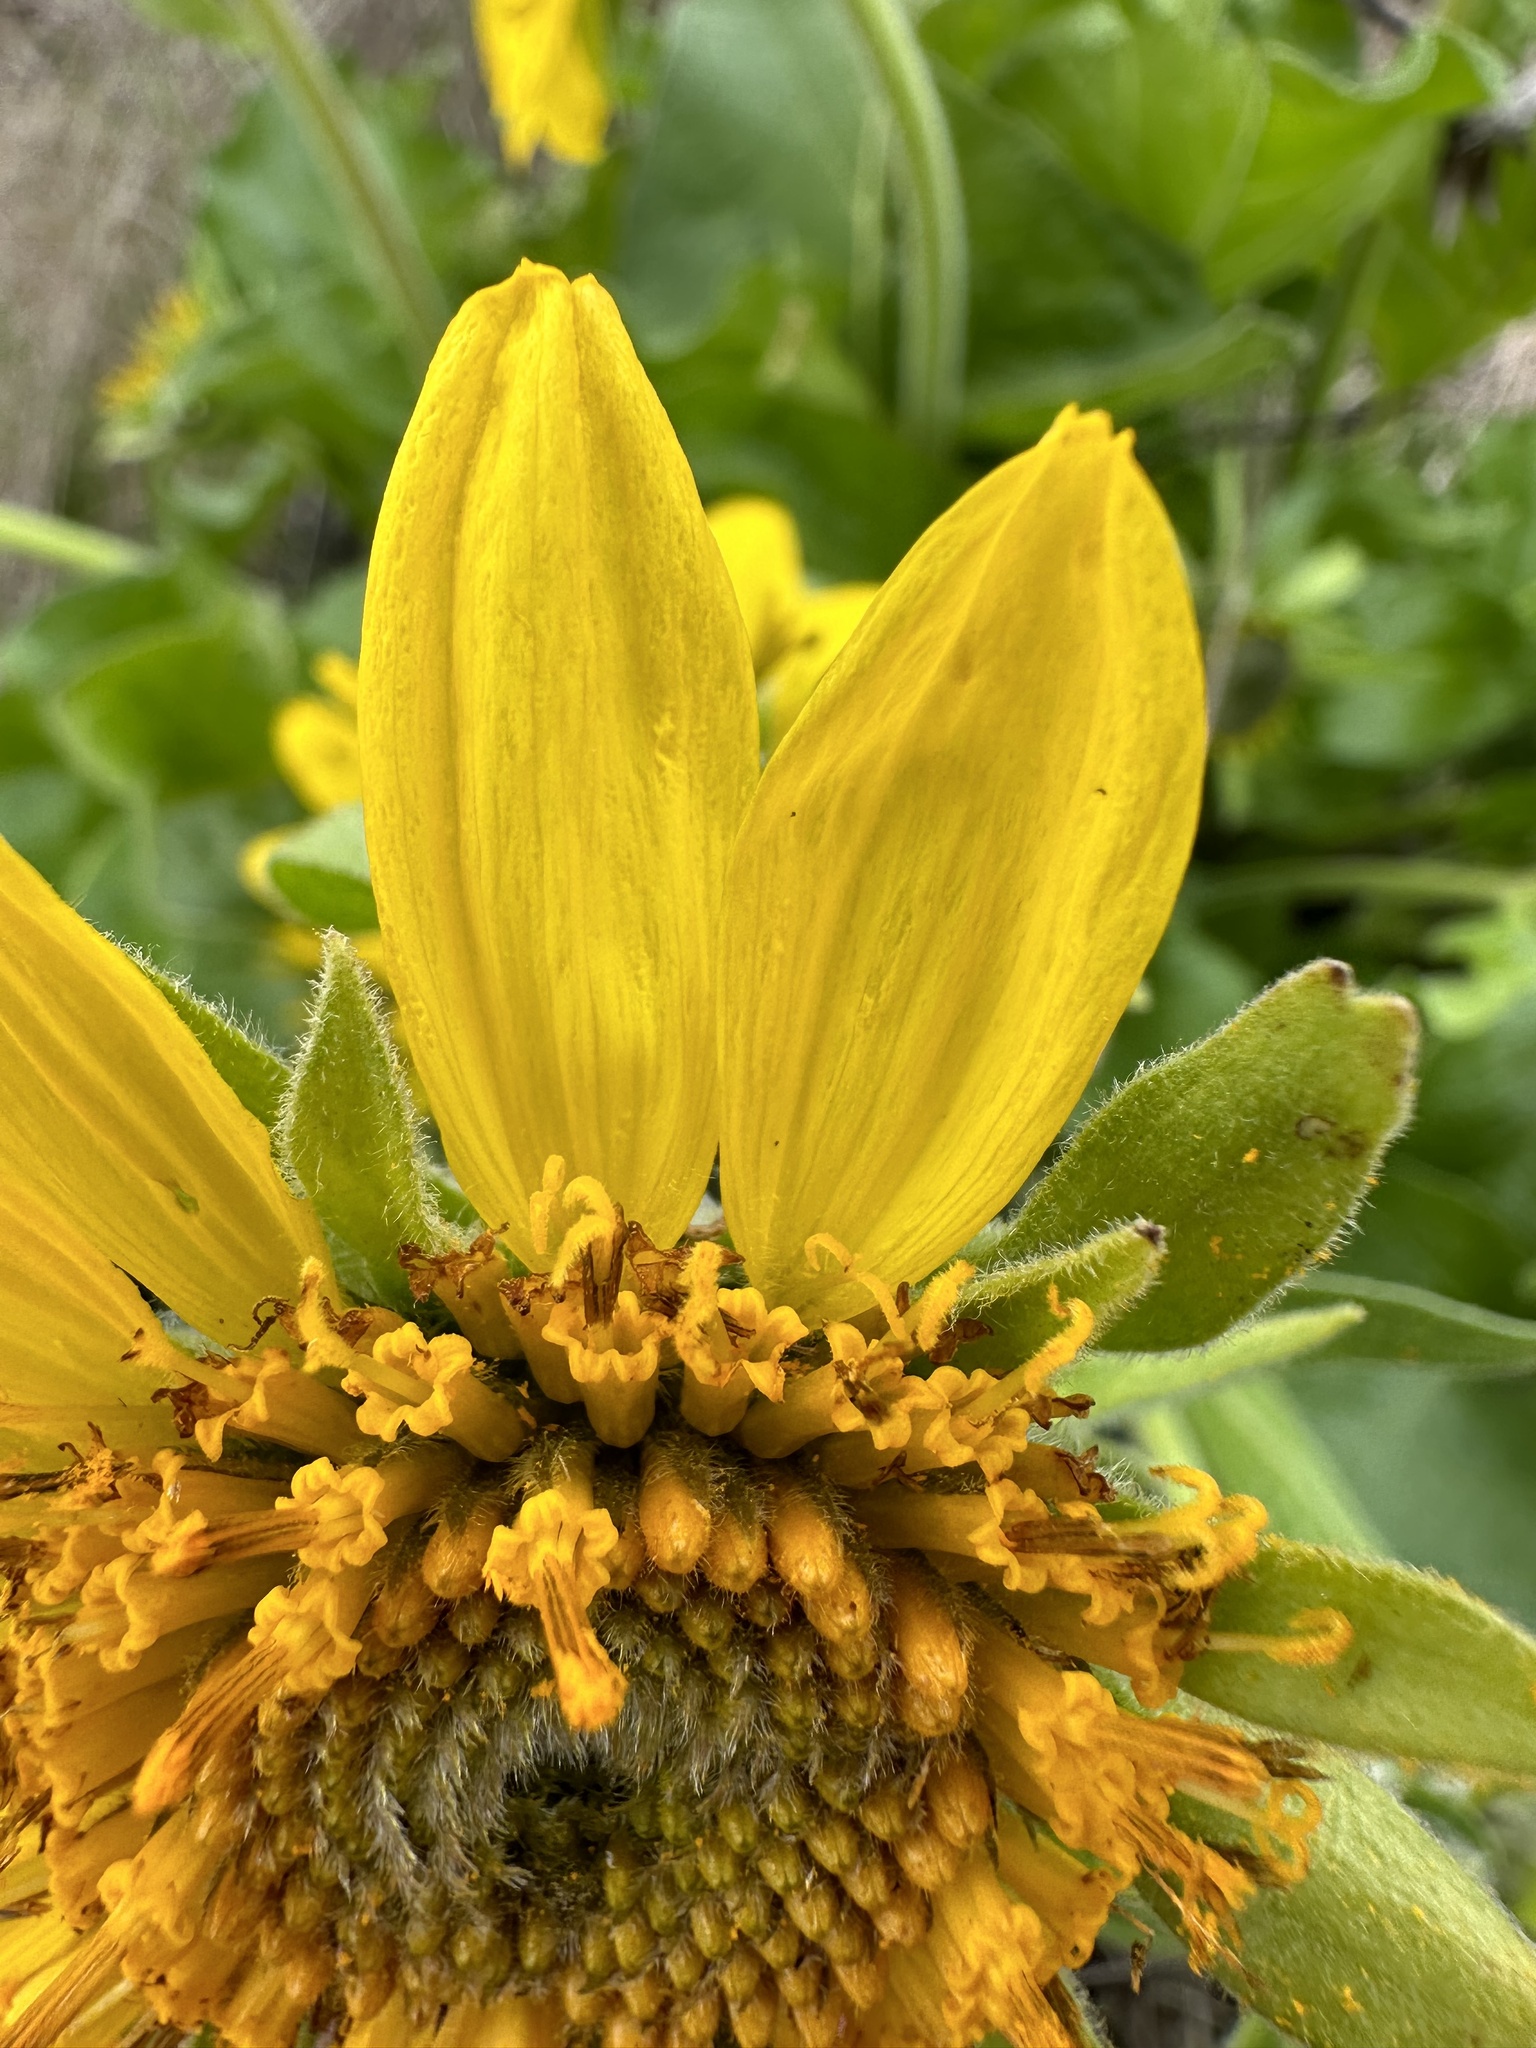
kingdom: Plantae
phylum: Tracheophyta
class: Magnoliopsida
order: Asterales
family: Asteraceae
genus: Balsamorhiza
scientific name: Balsamorhiza deltoidea
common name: Deltoid balsamroot
